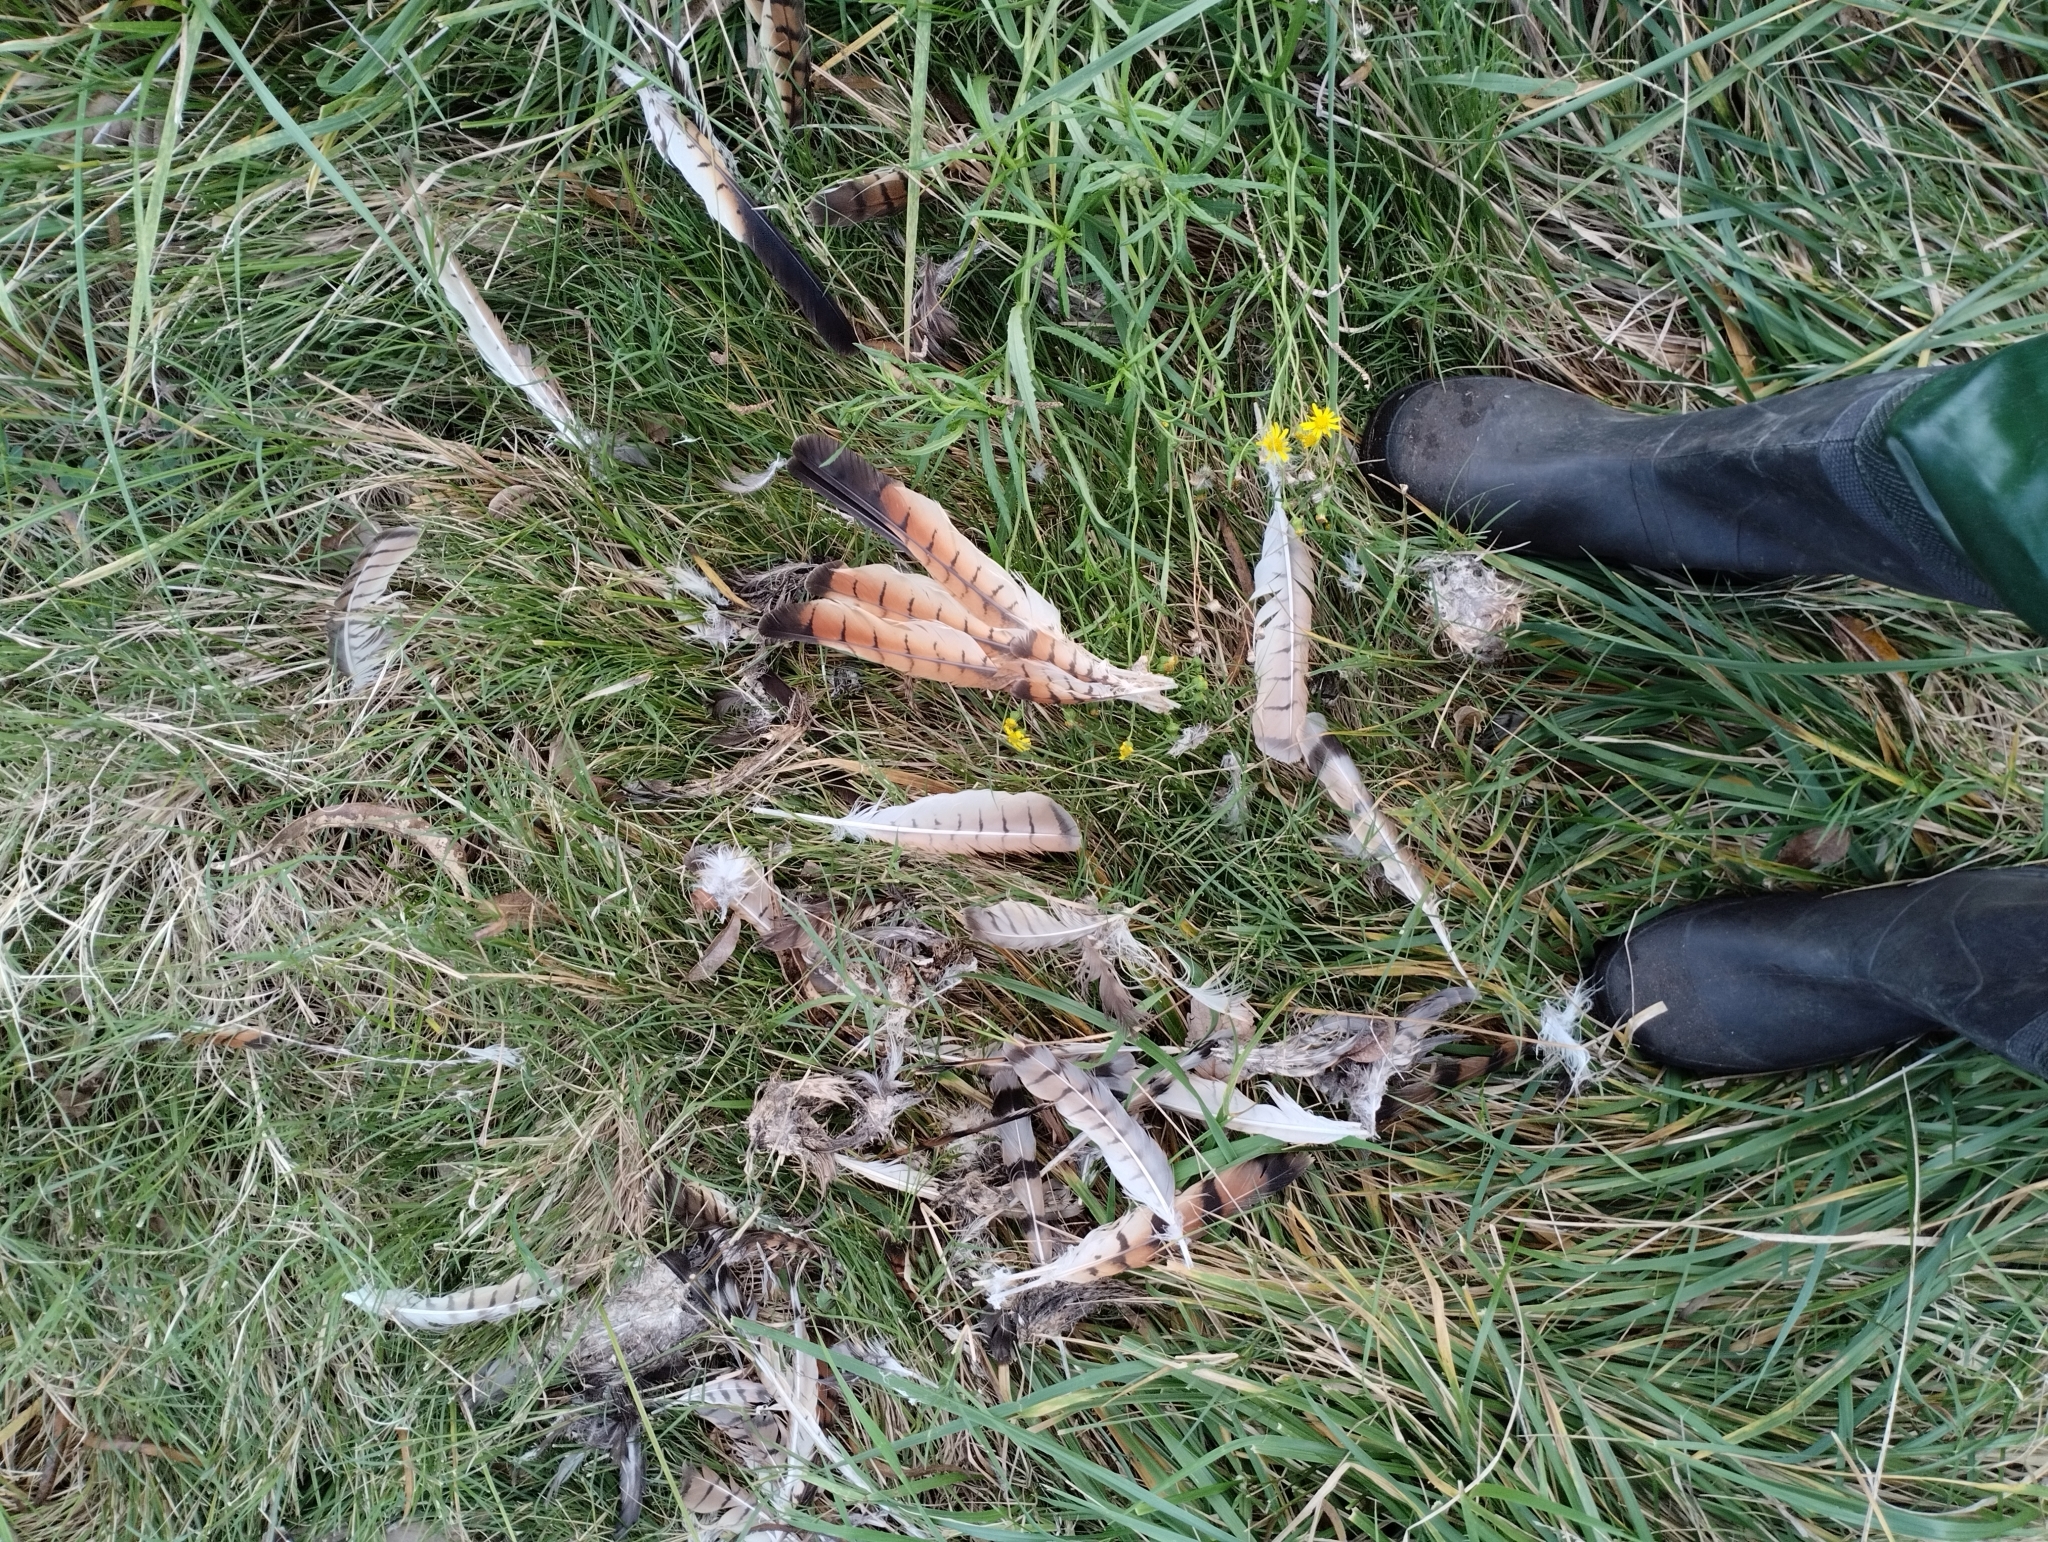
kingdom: Animalia
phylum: Chordata
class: Aves
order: Accipitriformes
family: Accipitridae
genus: Rupornis
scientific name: Rupornis magnirostris
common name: Roadside hawk
